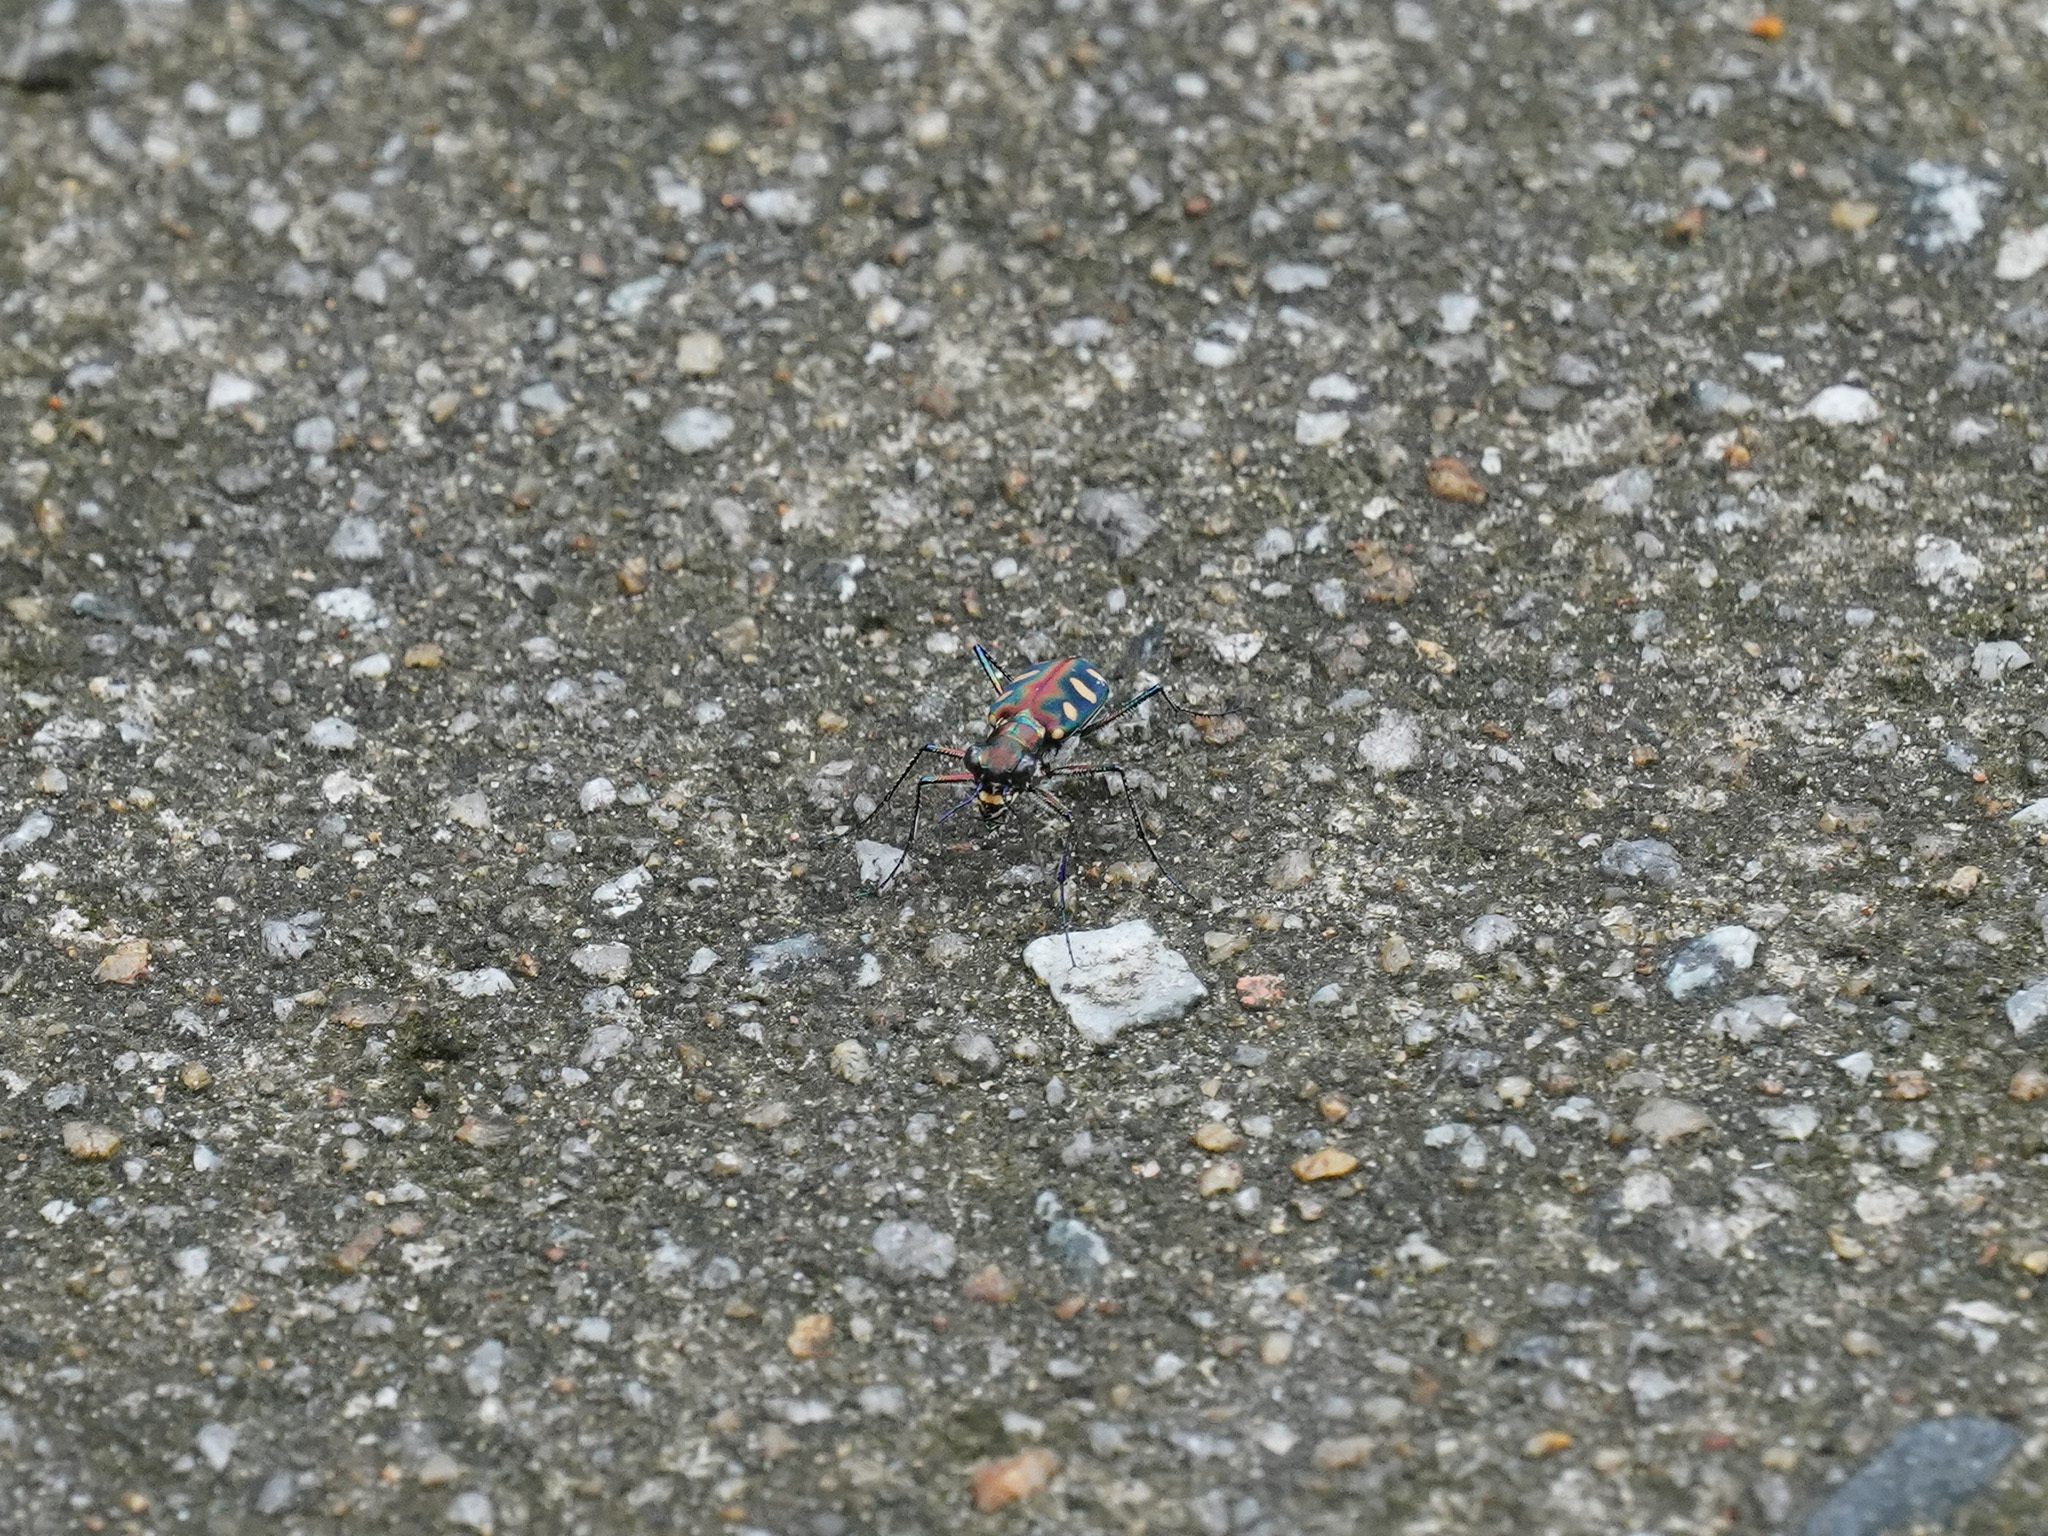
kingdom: Animalia
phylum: Arthropoda
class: Insecta
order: Coleoptera
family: Carabidae
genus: Cicindela
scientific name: Cicindela aurulenta
